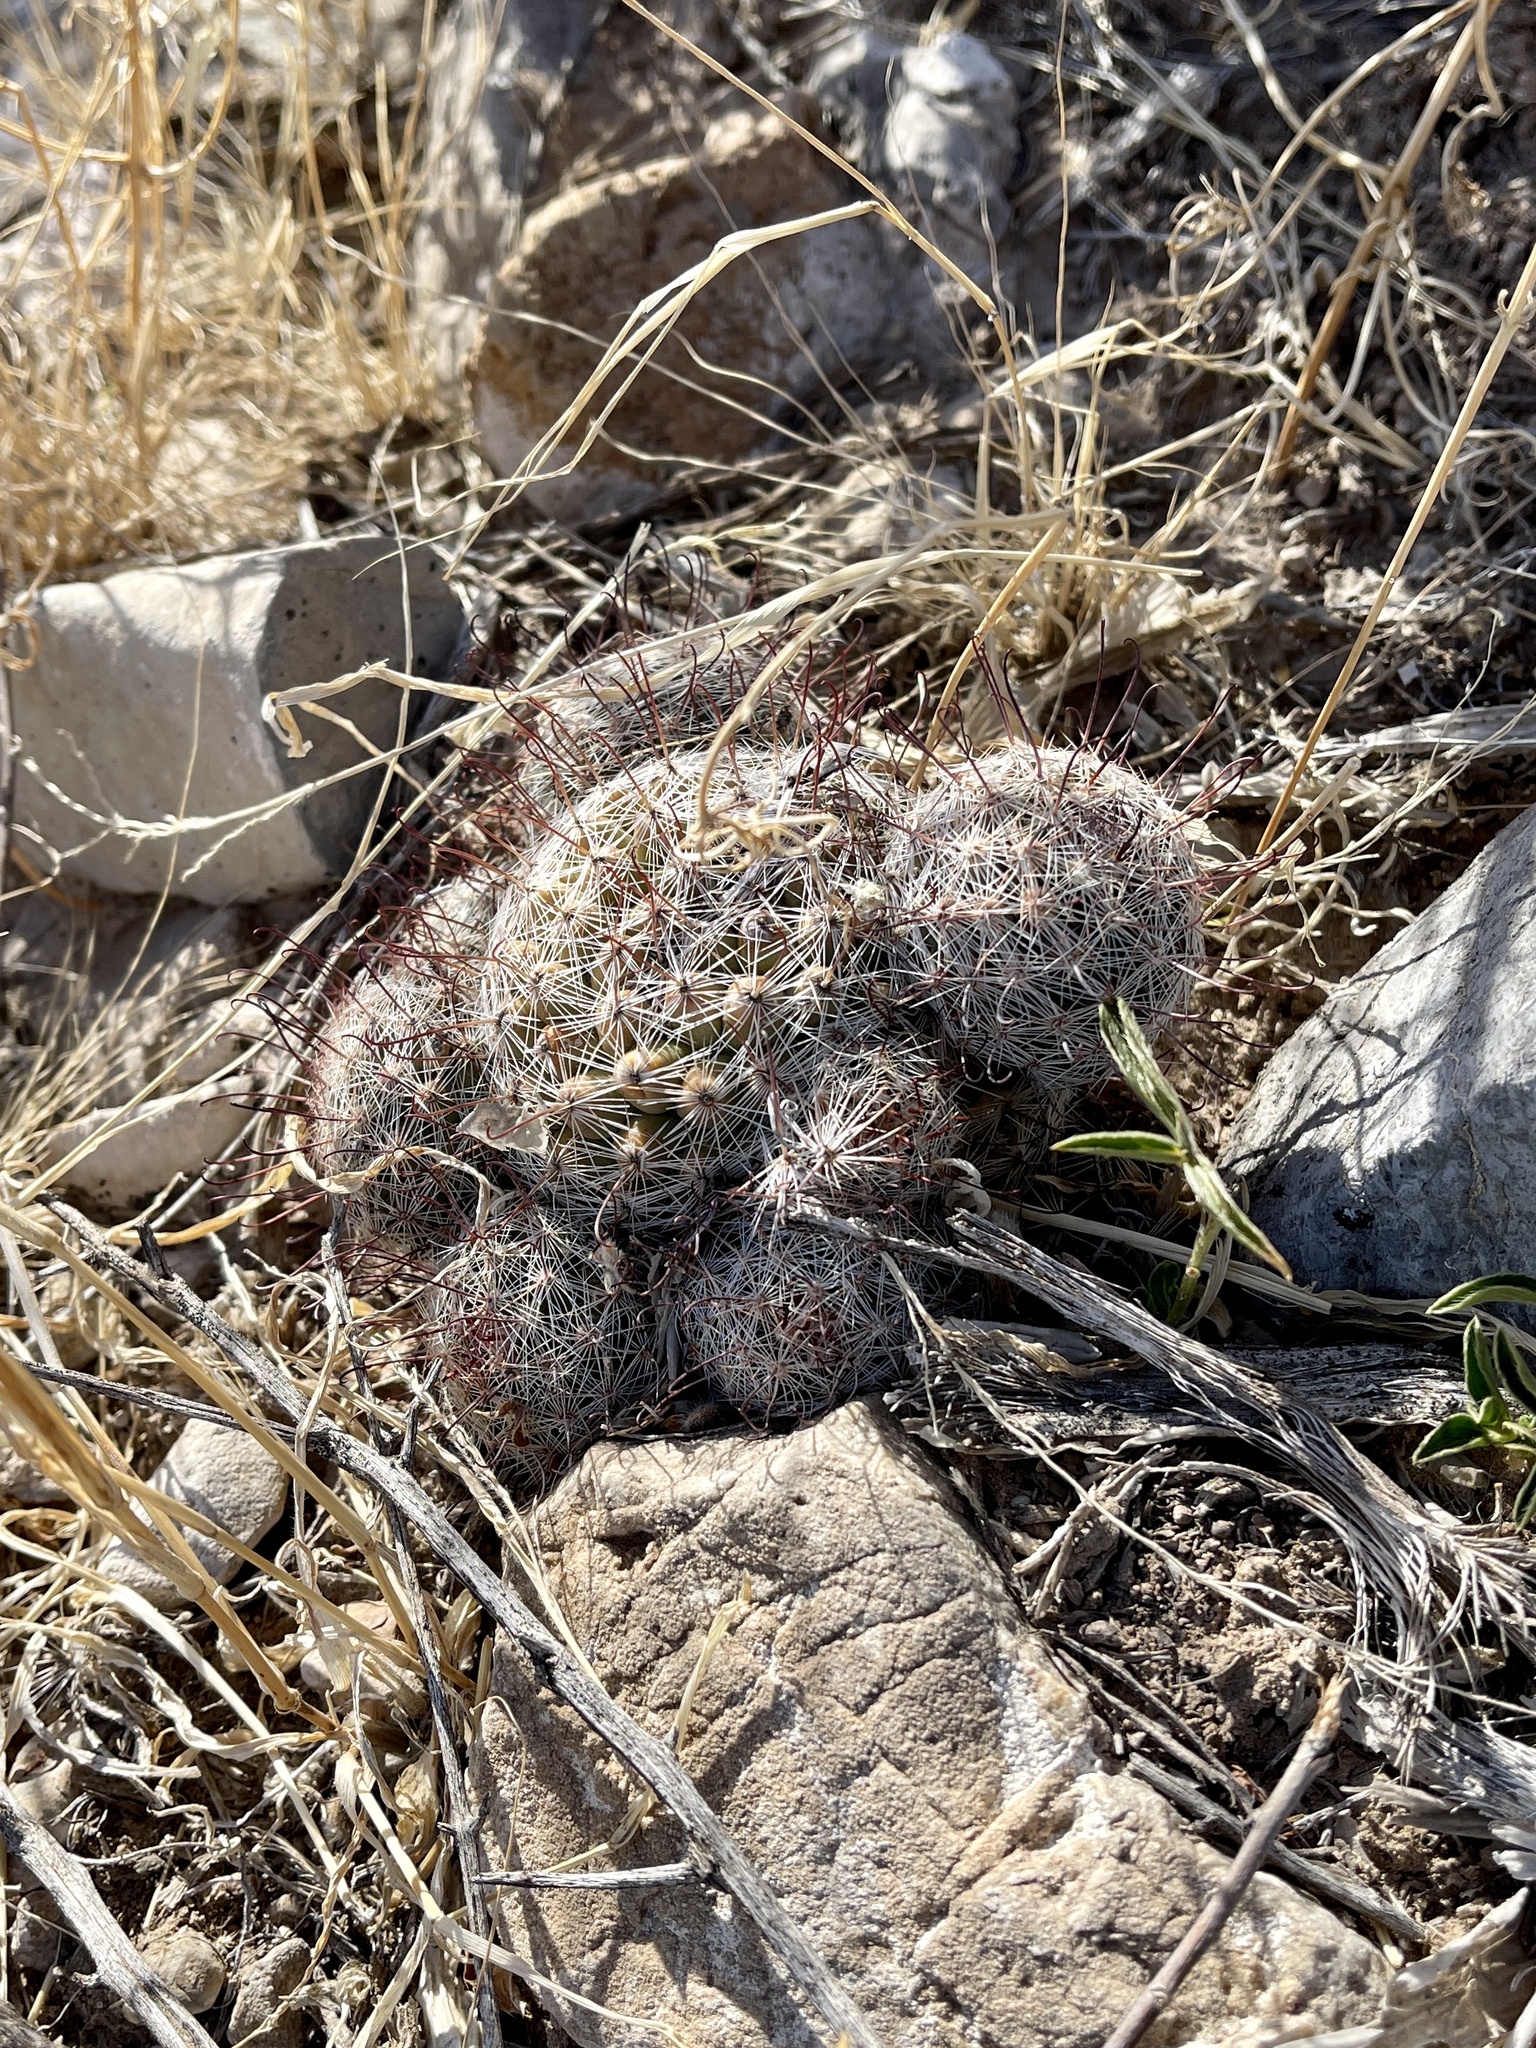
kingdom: Plantae
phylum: Tracheophyta
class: Magnoliopsida
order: Caryophyllales
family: Cactaceae
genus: Cochemiea
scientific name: Cochemiea grahamii
